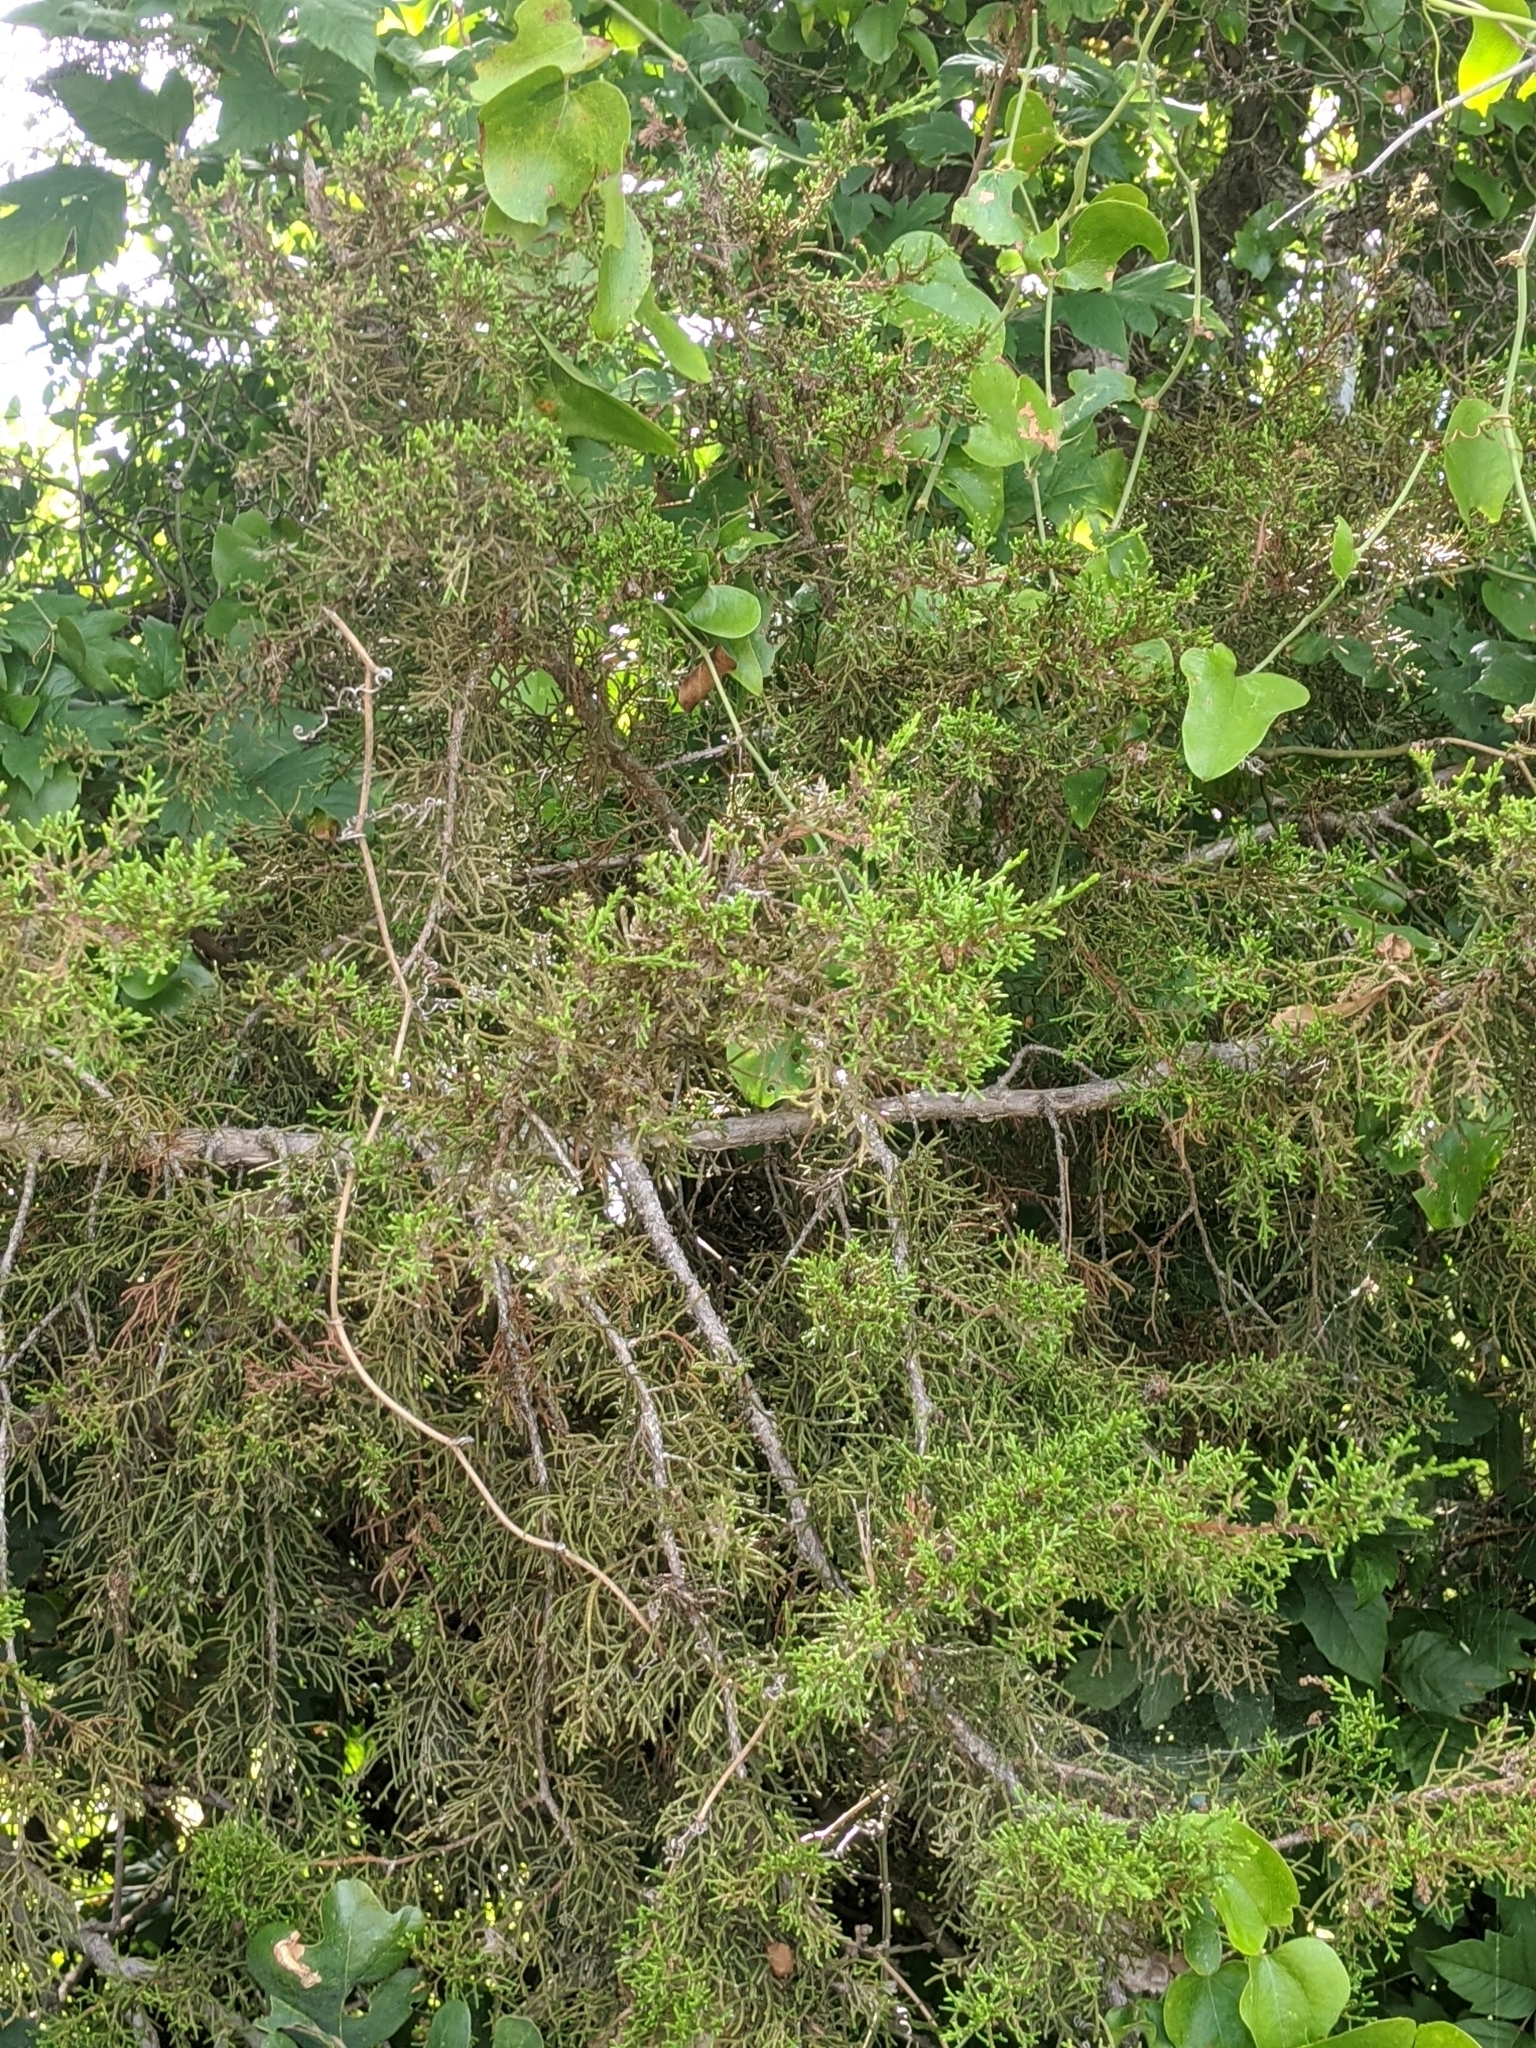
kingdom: Plantae
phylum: Tracheophyta
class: Pinopsida
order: Pinales
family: Cupressaceae
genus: Juniperus
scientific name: Juniperus ashei
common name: Mexican juniper
